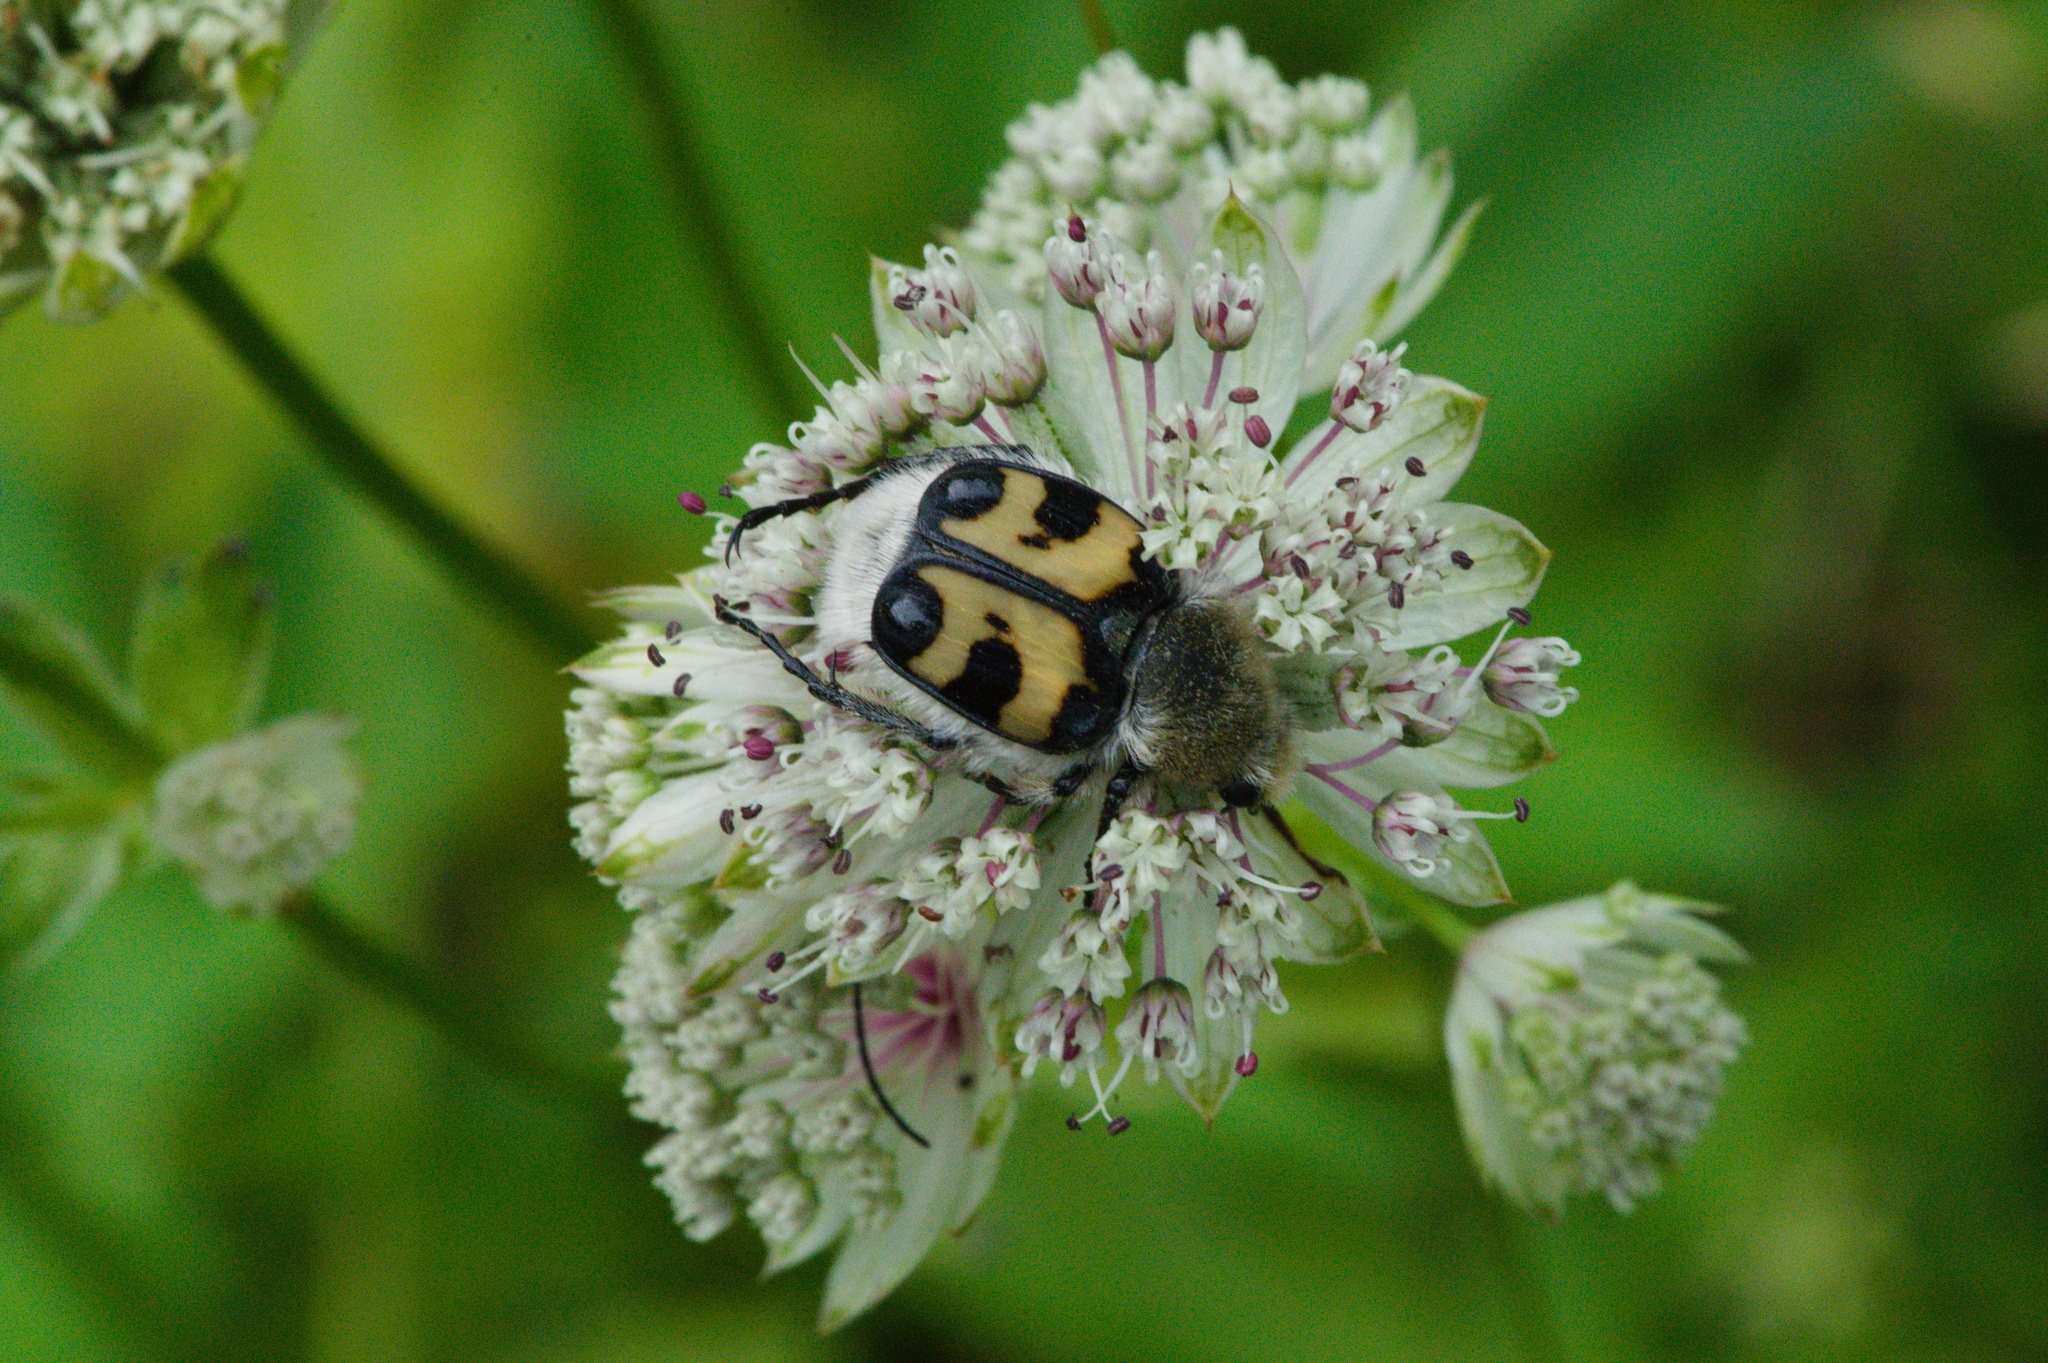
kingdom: Animalia
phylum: Arthropoda
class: Insecta
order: Coleoptera
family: Scarabaeidae
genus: Trichius
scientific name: Trichius fasciatus
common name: Bee beetle
